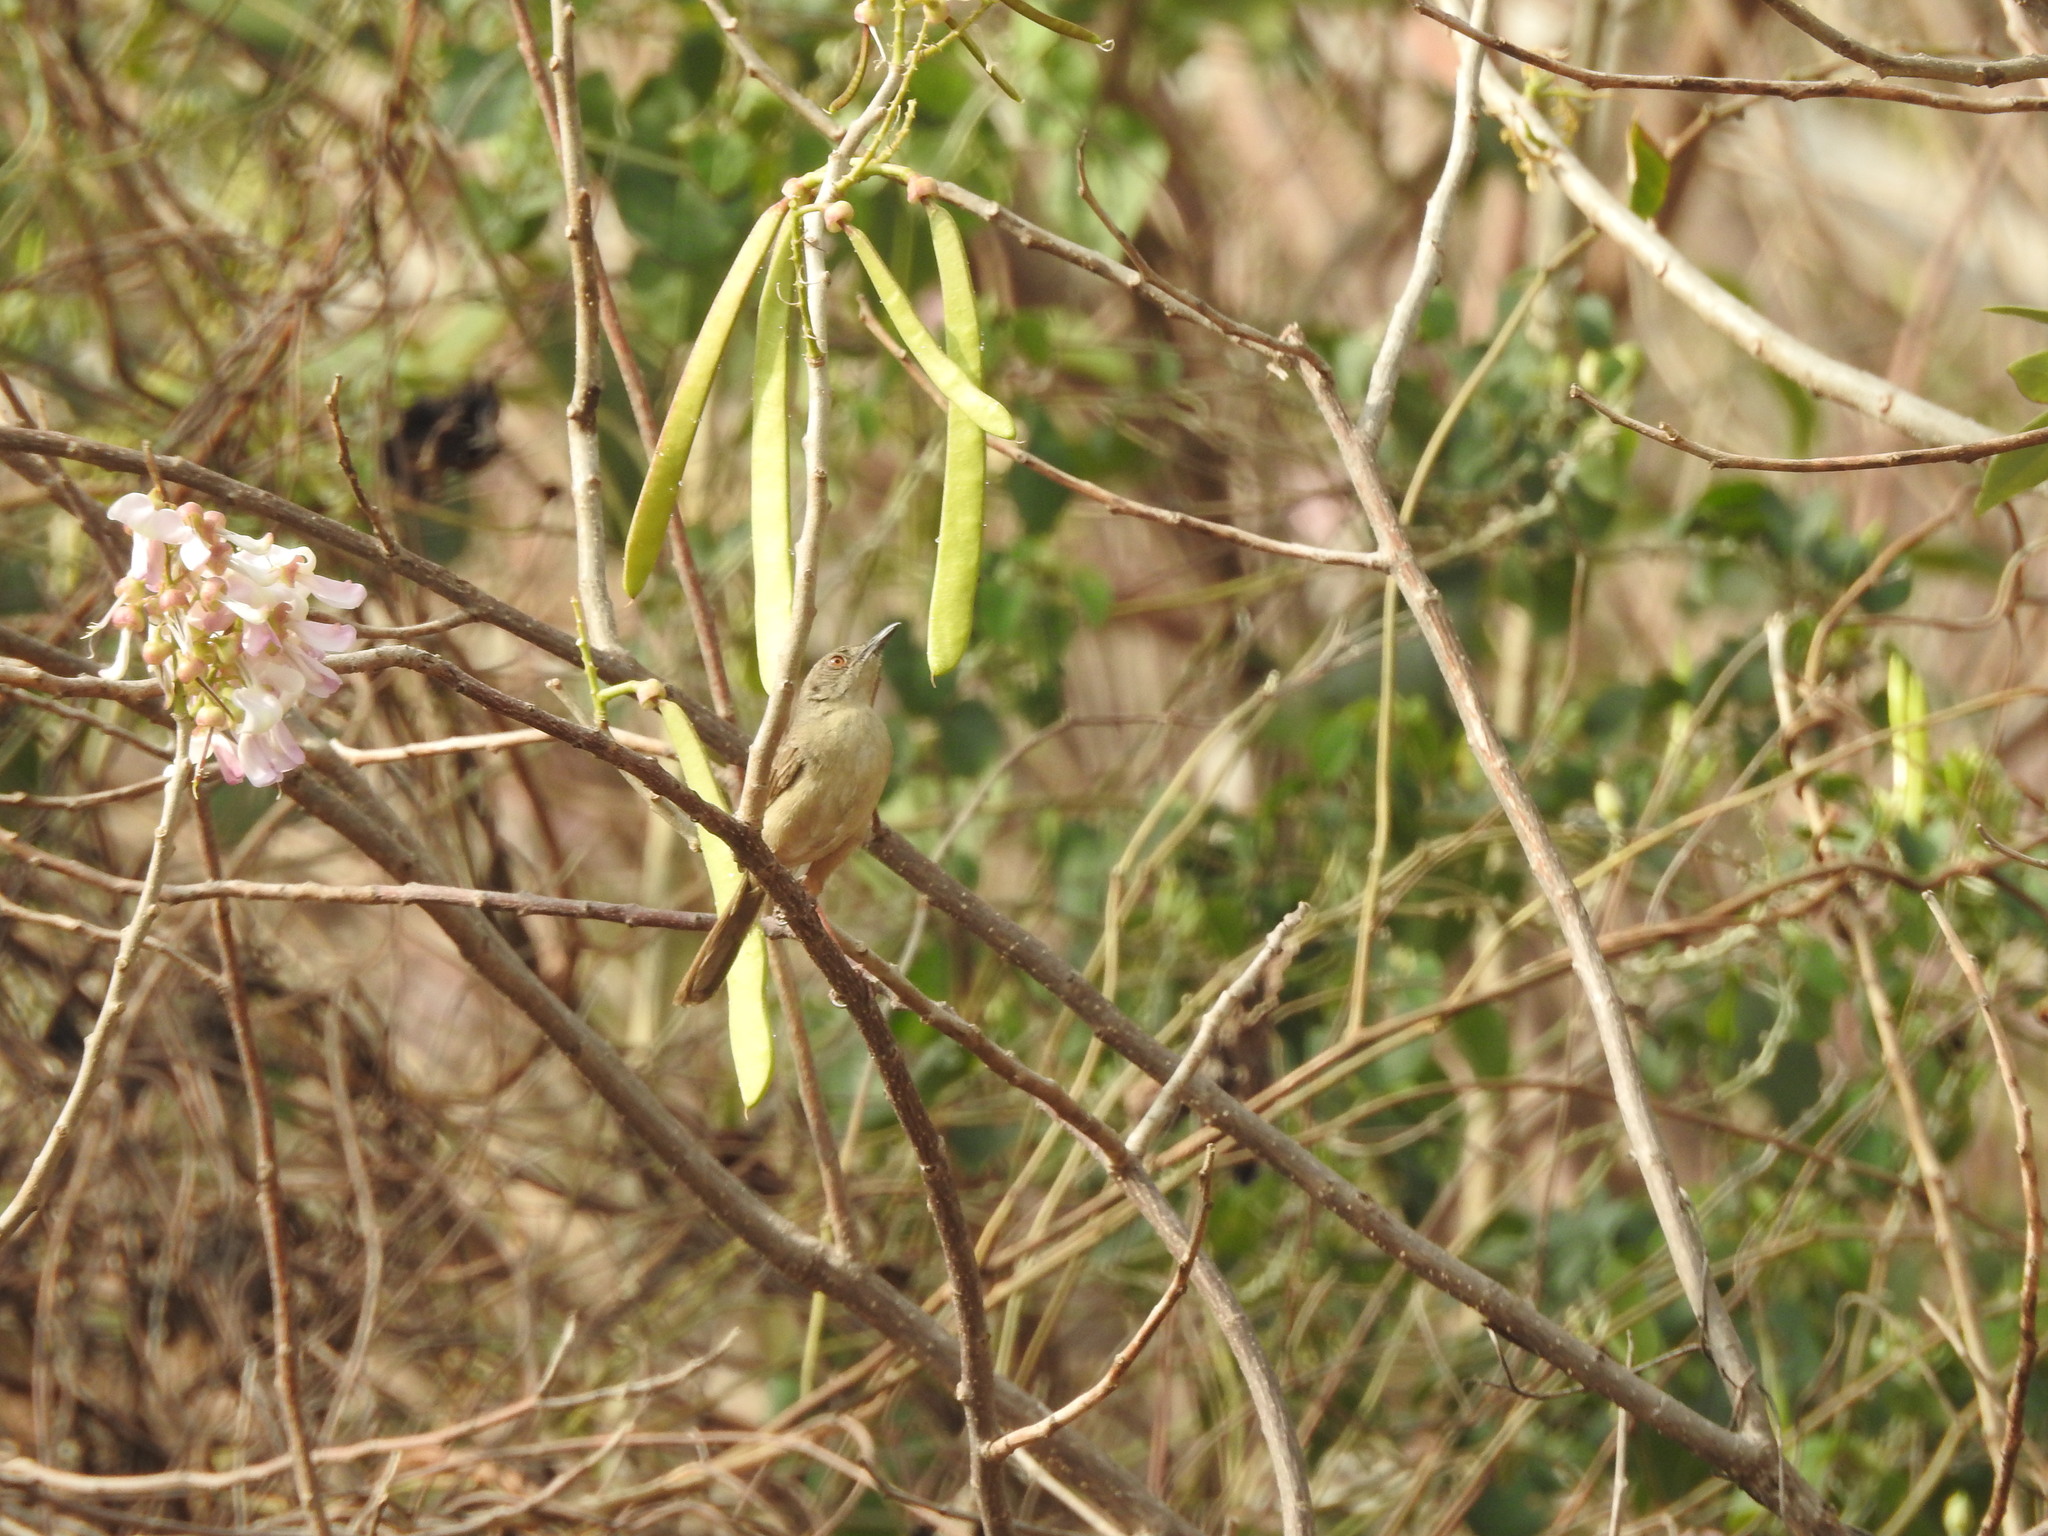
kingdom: Animalia
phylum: Chordata
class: Aves
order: Passeriformes
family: Cisticolidae
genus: Prinia
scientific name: Prinia sylvatica
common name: Jungle prinia
